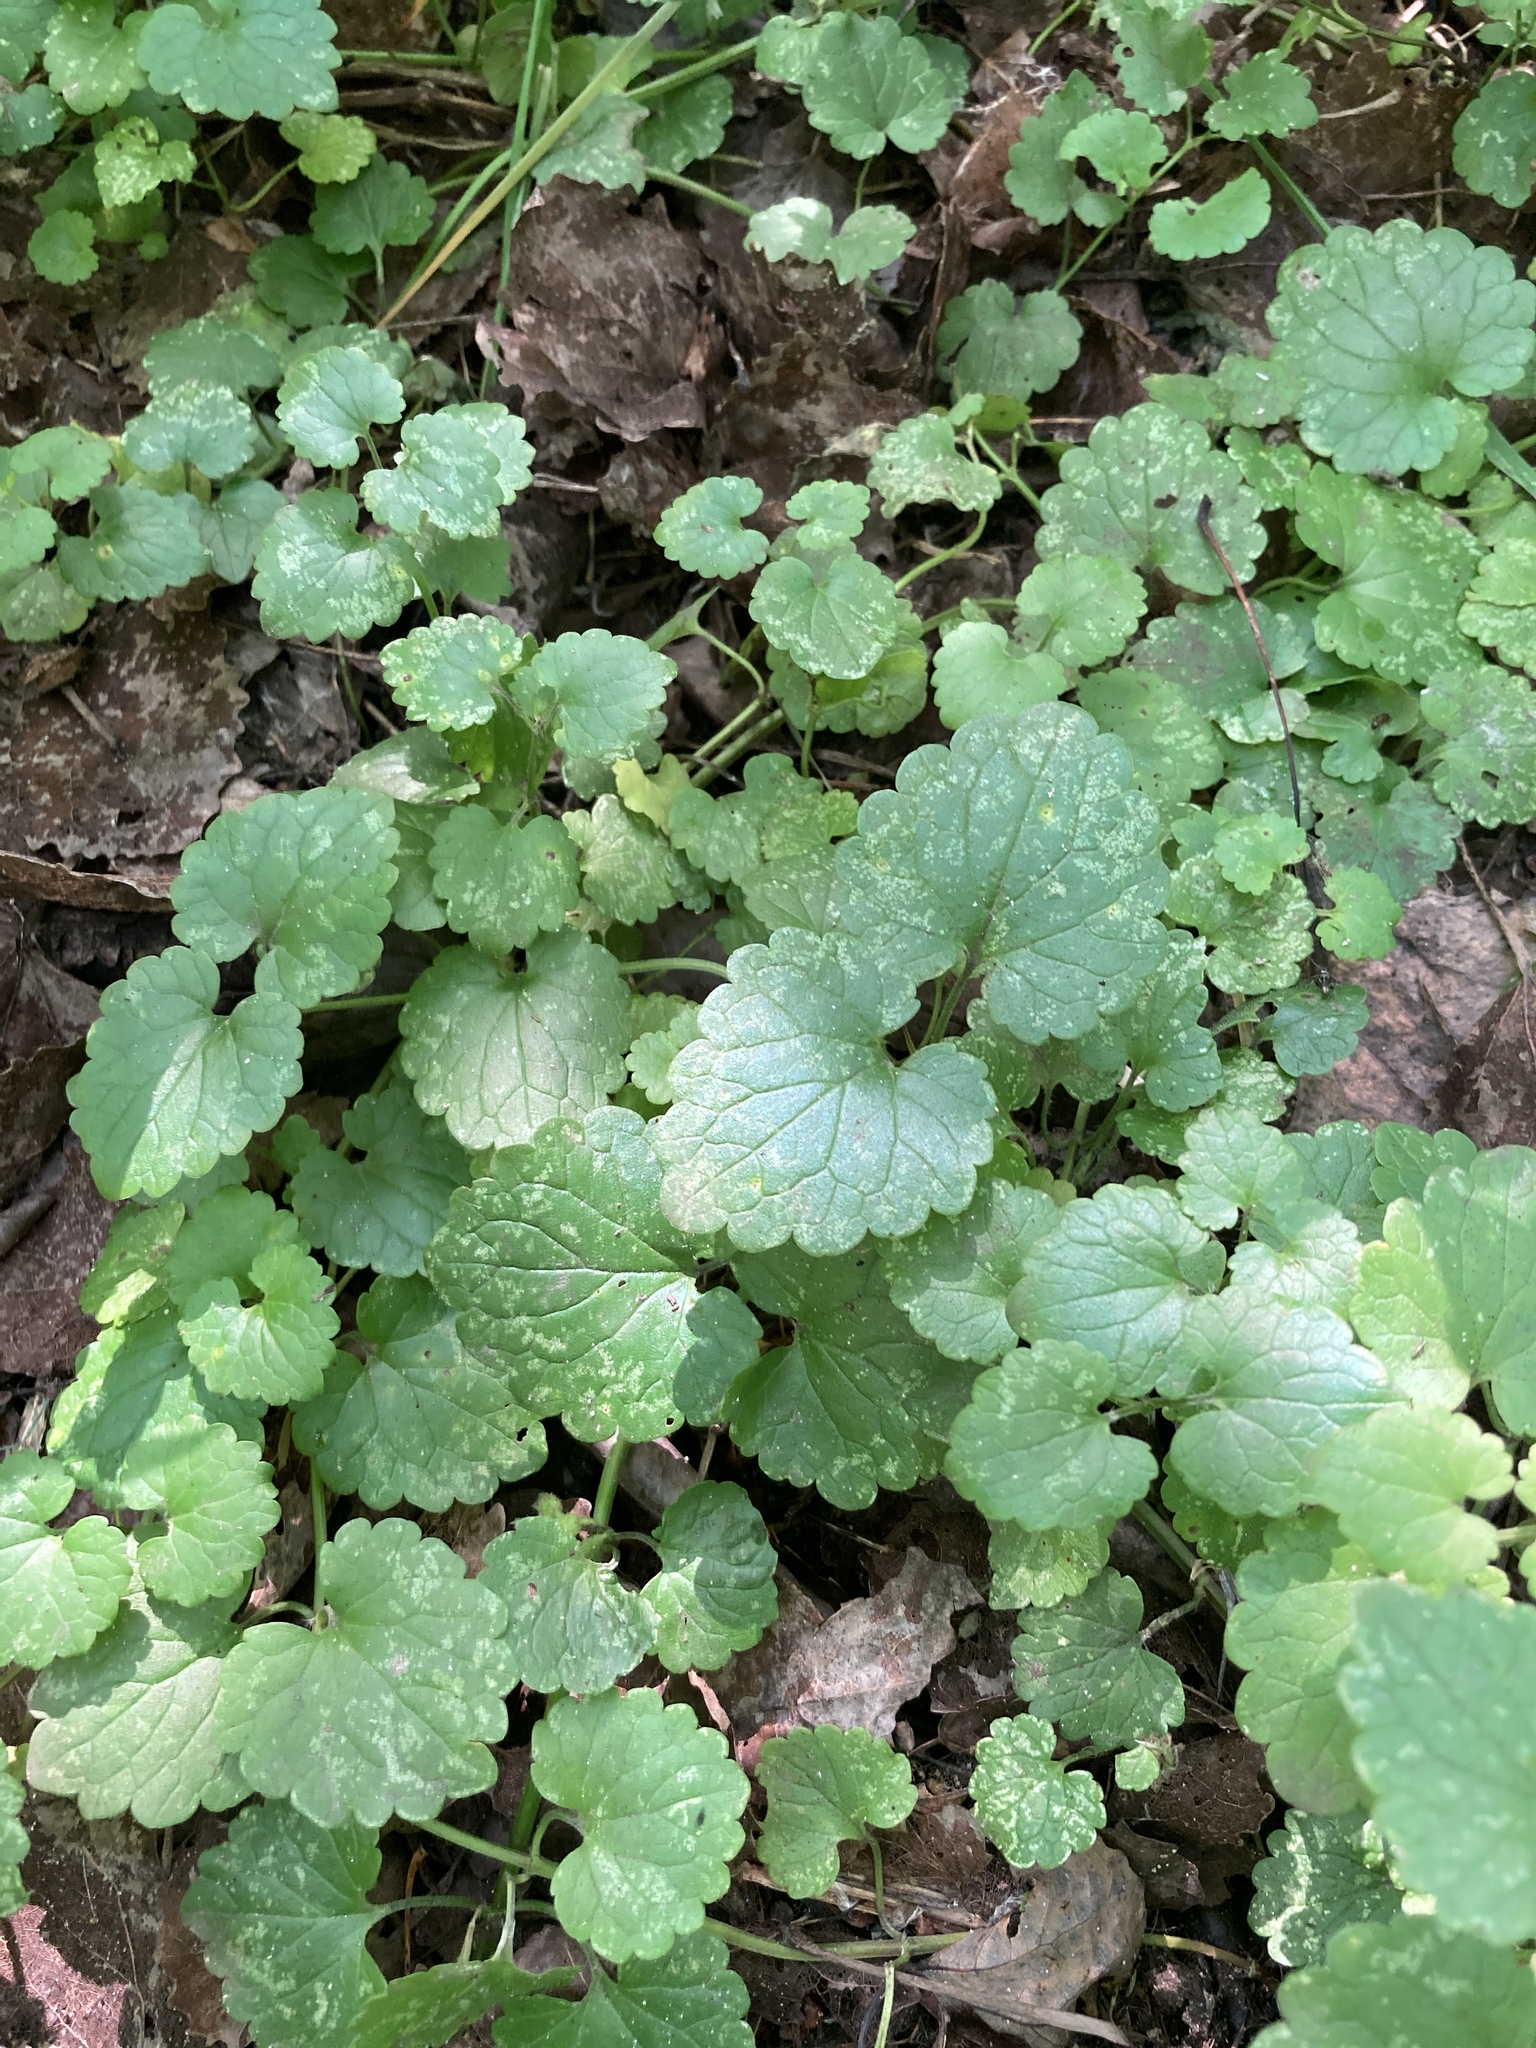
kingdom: Plantae
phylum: Tracheophyta
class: Magnoliopsida
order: Lamiales
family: Lamiaceae
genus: Glechoma
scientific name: Glechoma hederacea
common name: Ground ivy
